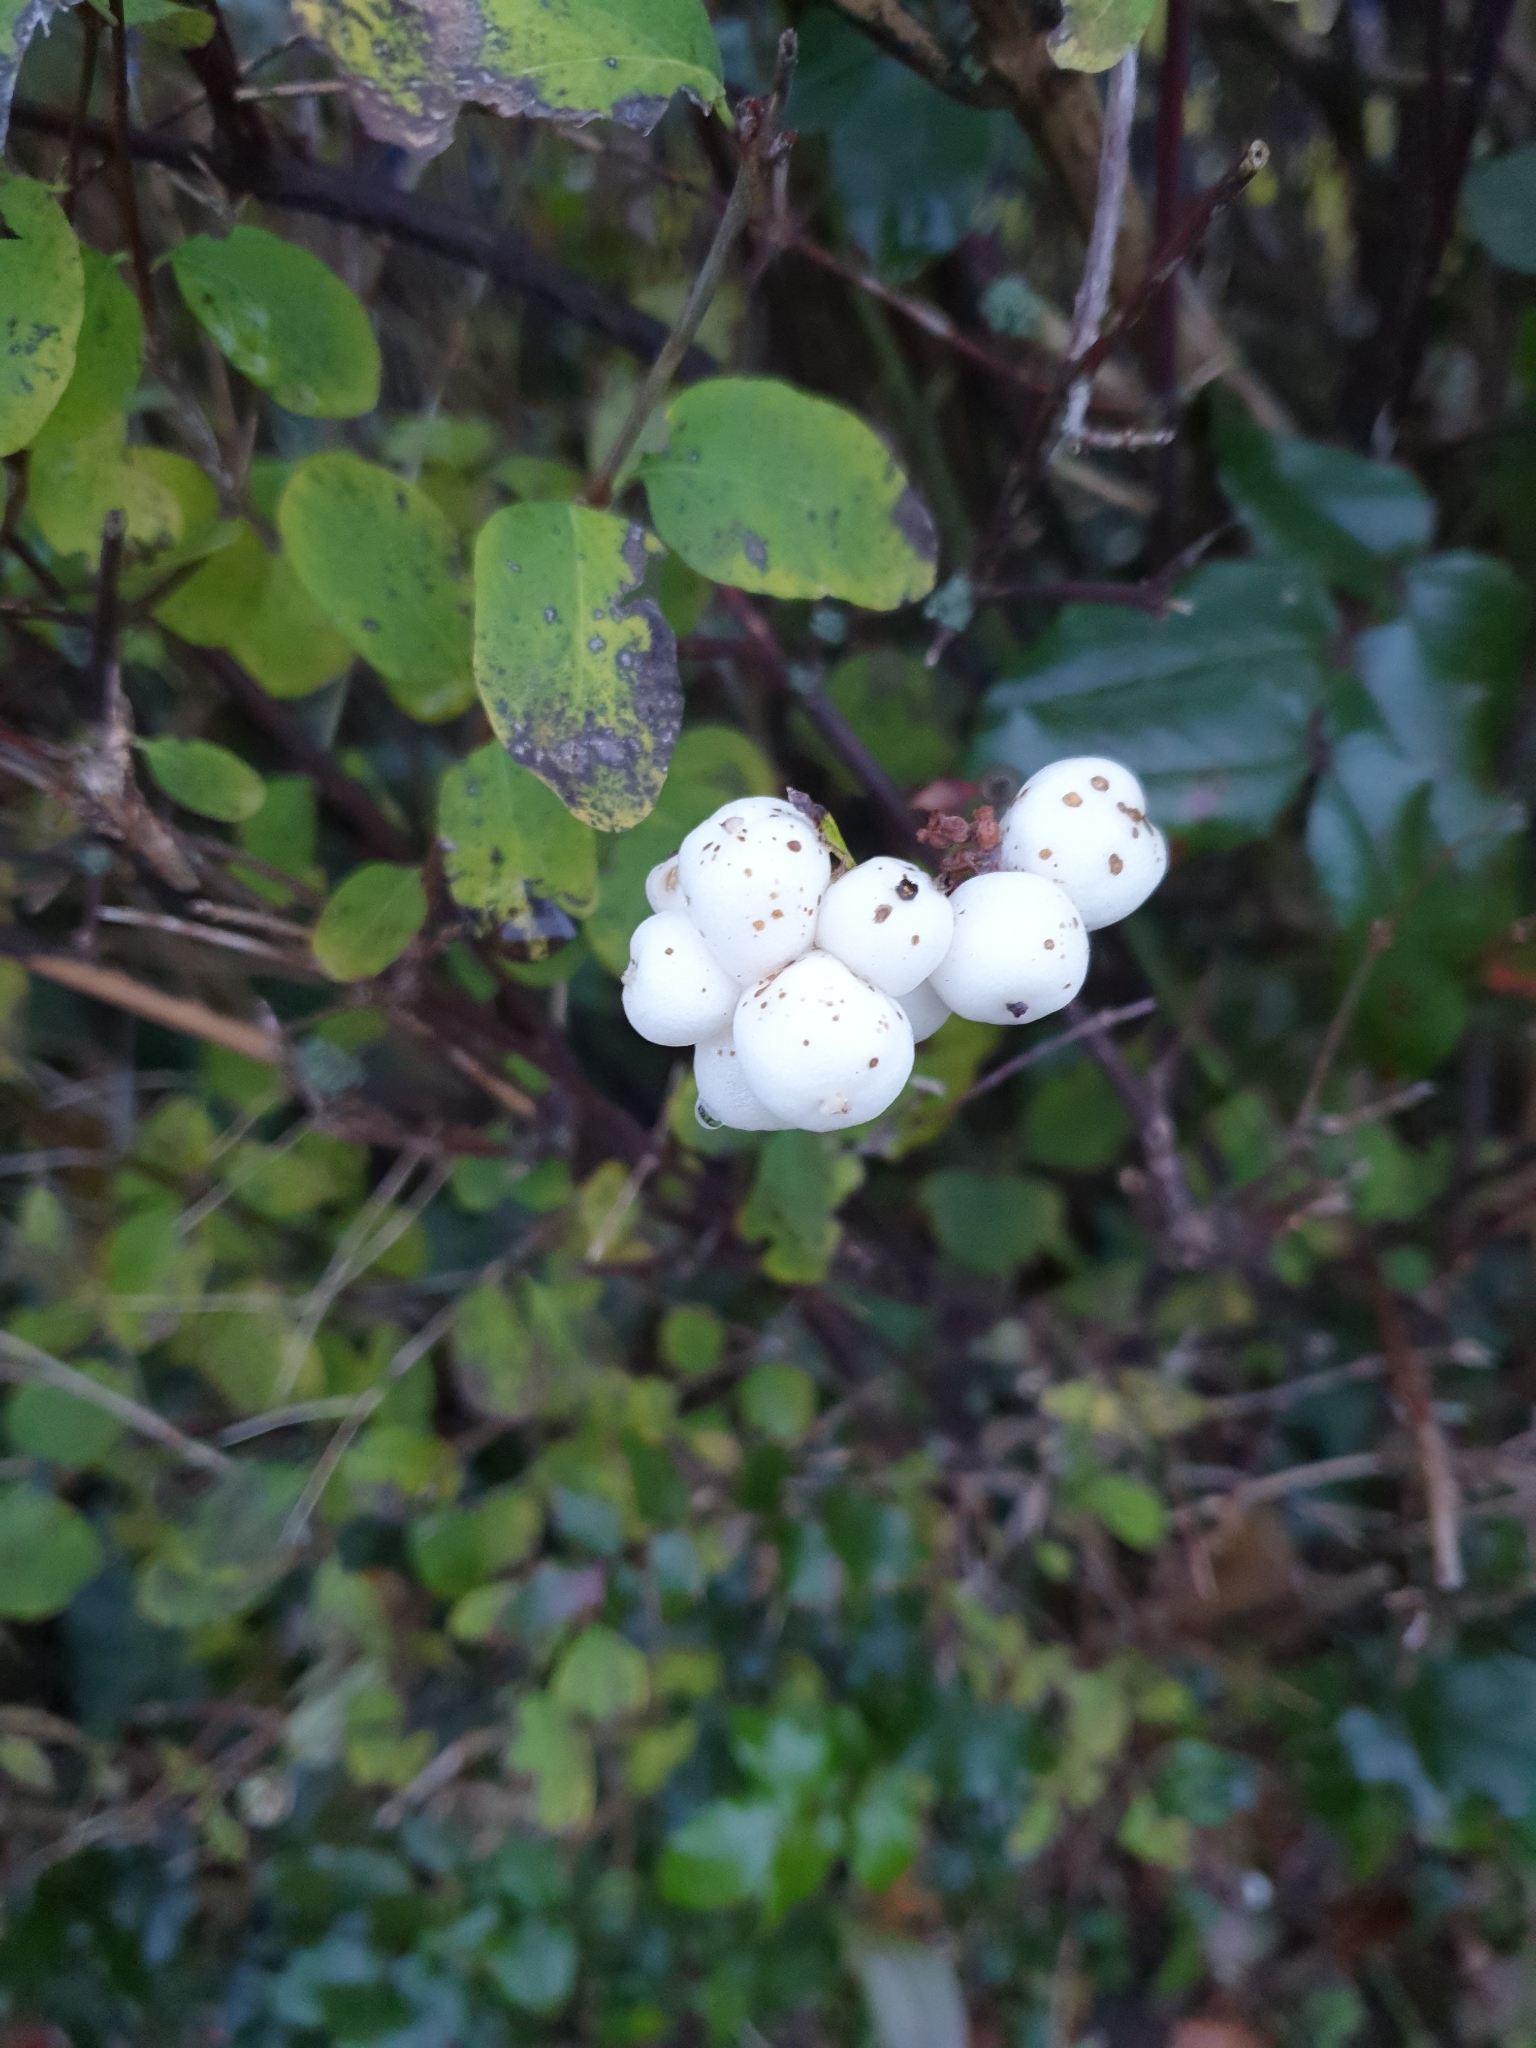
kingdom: Plantae
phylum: Tracheophyta
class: Magnoliopsida
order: Dipsacales
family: Caprifoliaceae
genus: Symphoricarpos
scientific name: Symphoricarpos albus
